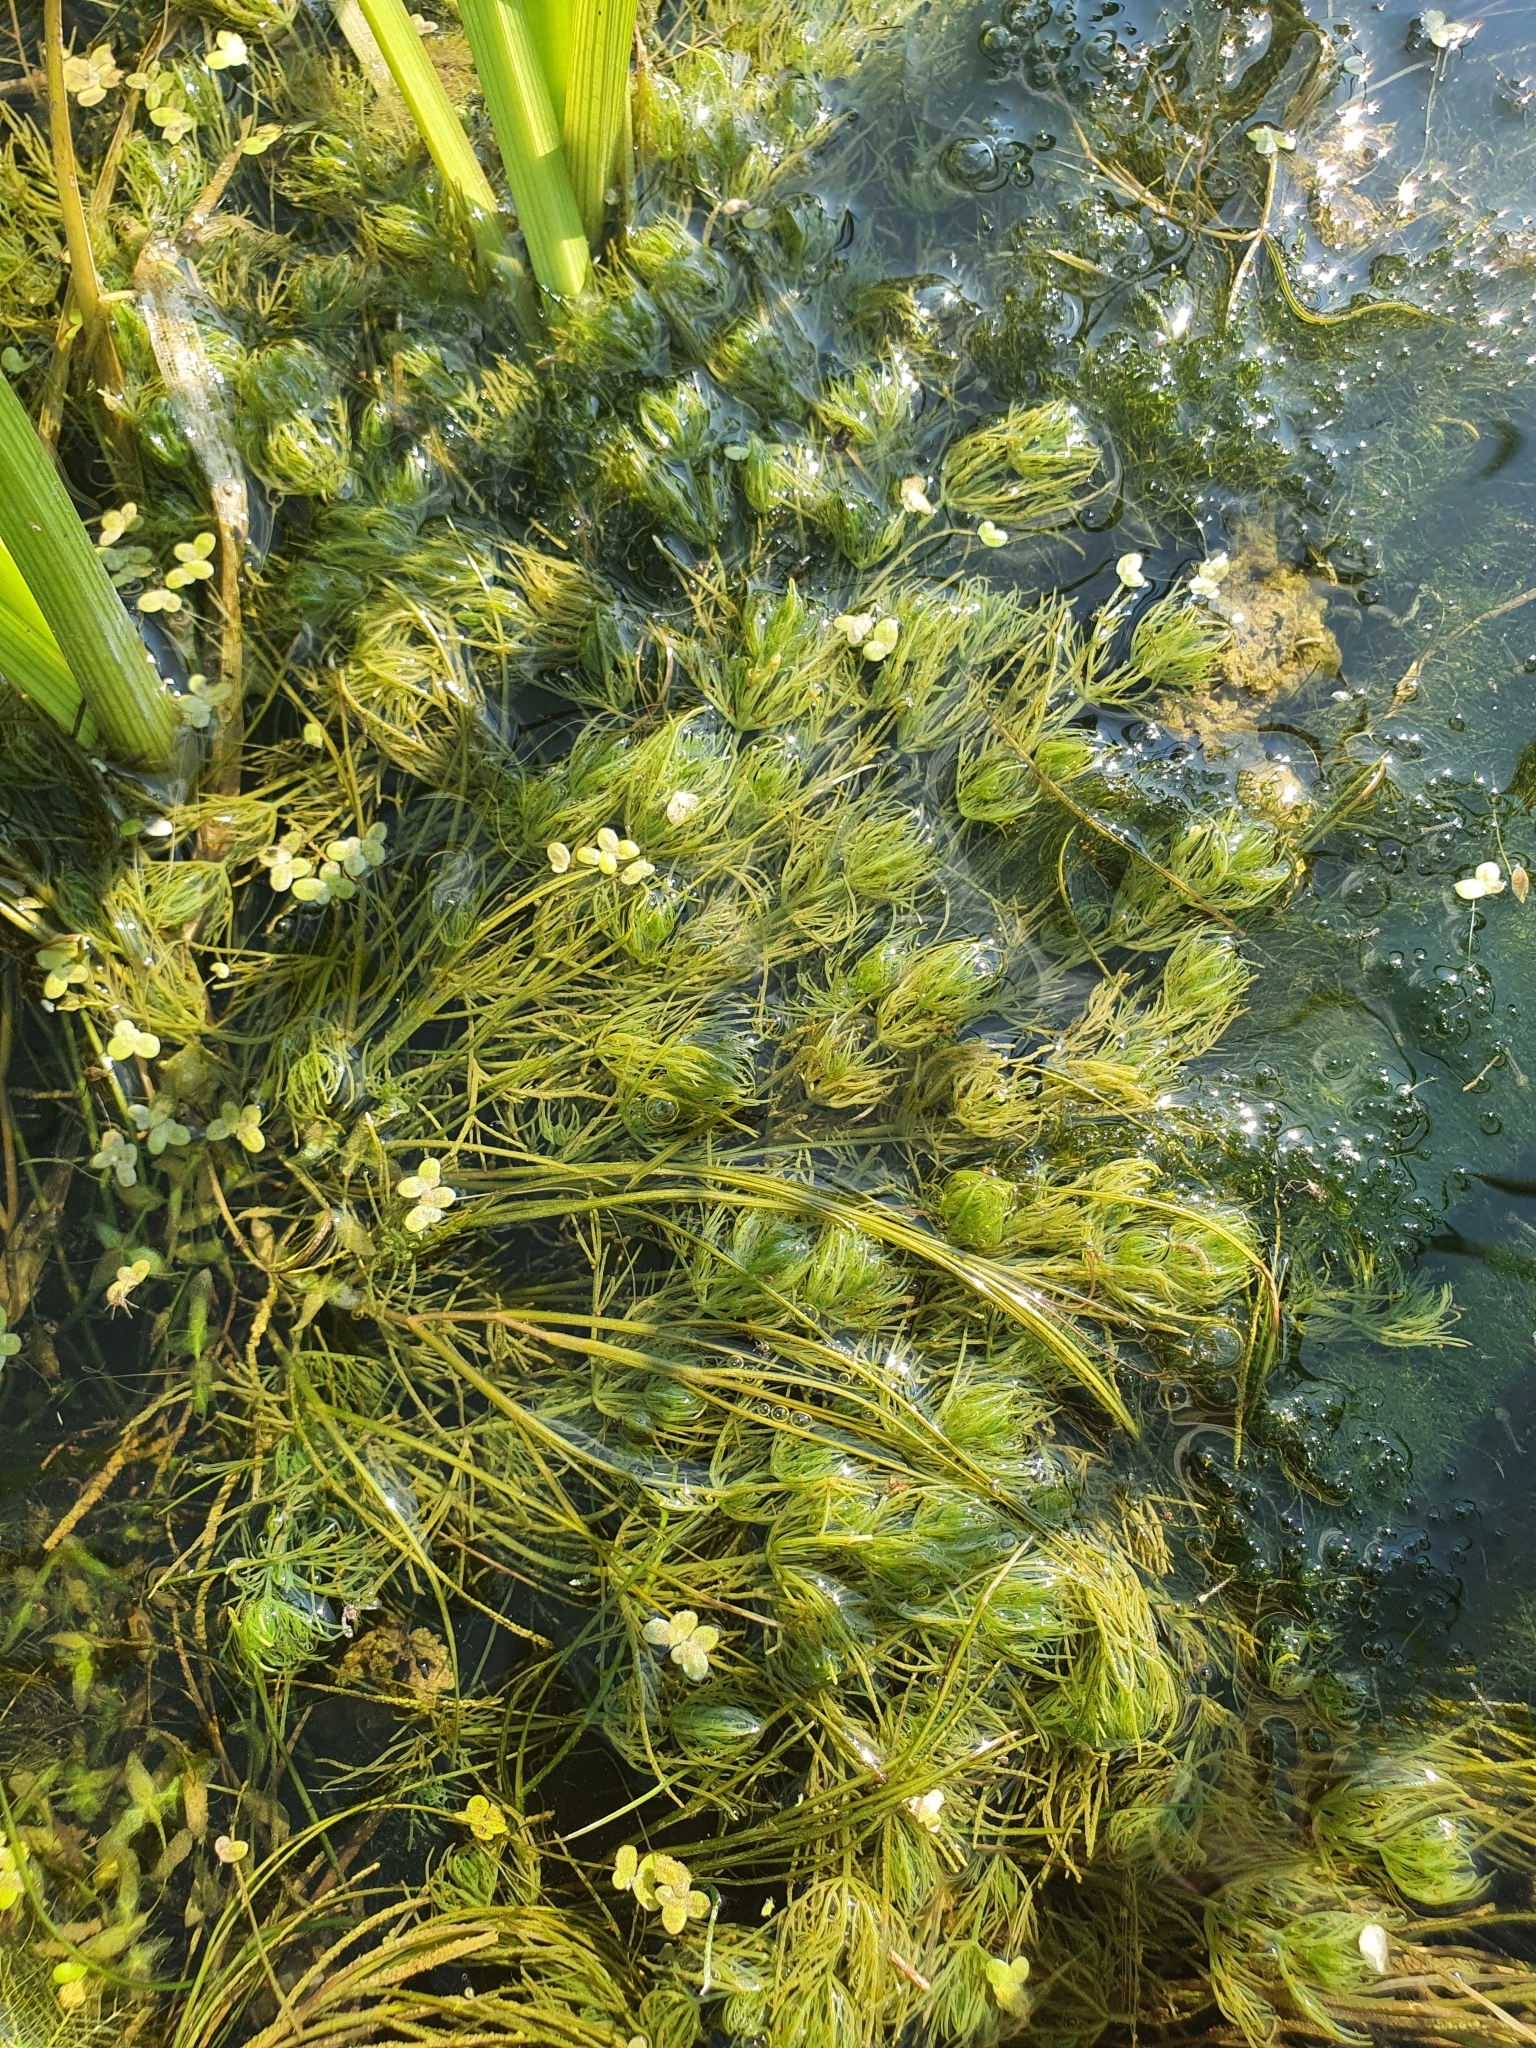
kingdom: Plantae
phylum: Charophyta
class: Charophyceae
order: Charales
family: Characeae
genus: Chara
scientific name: Chara vulgaris
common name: Common stonewort
